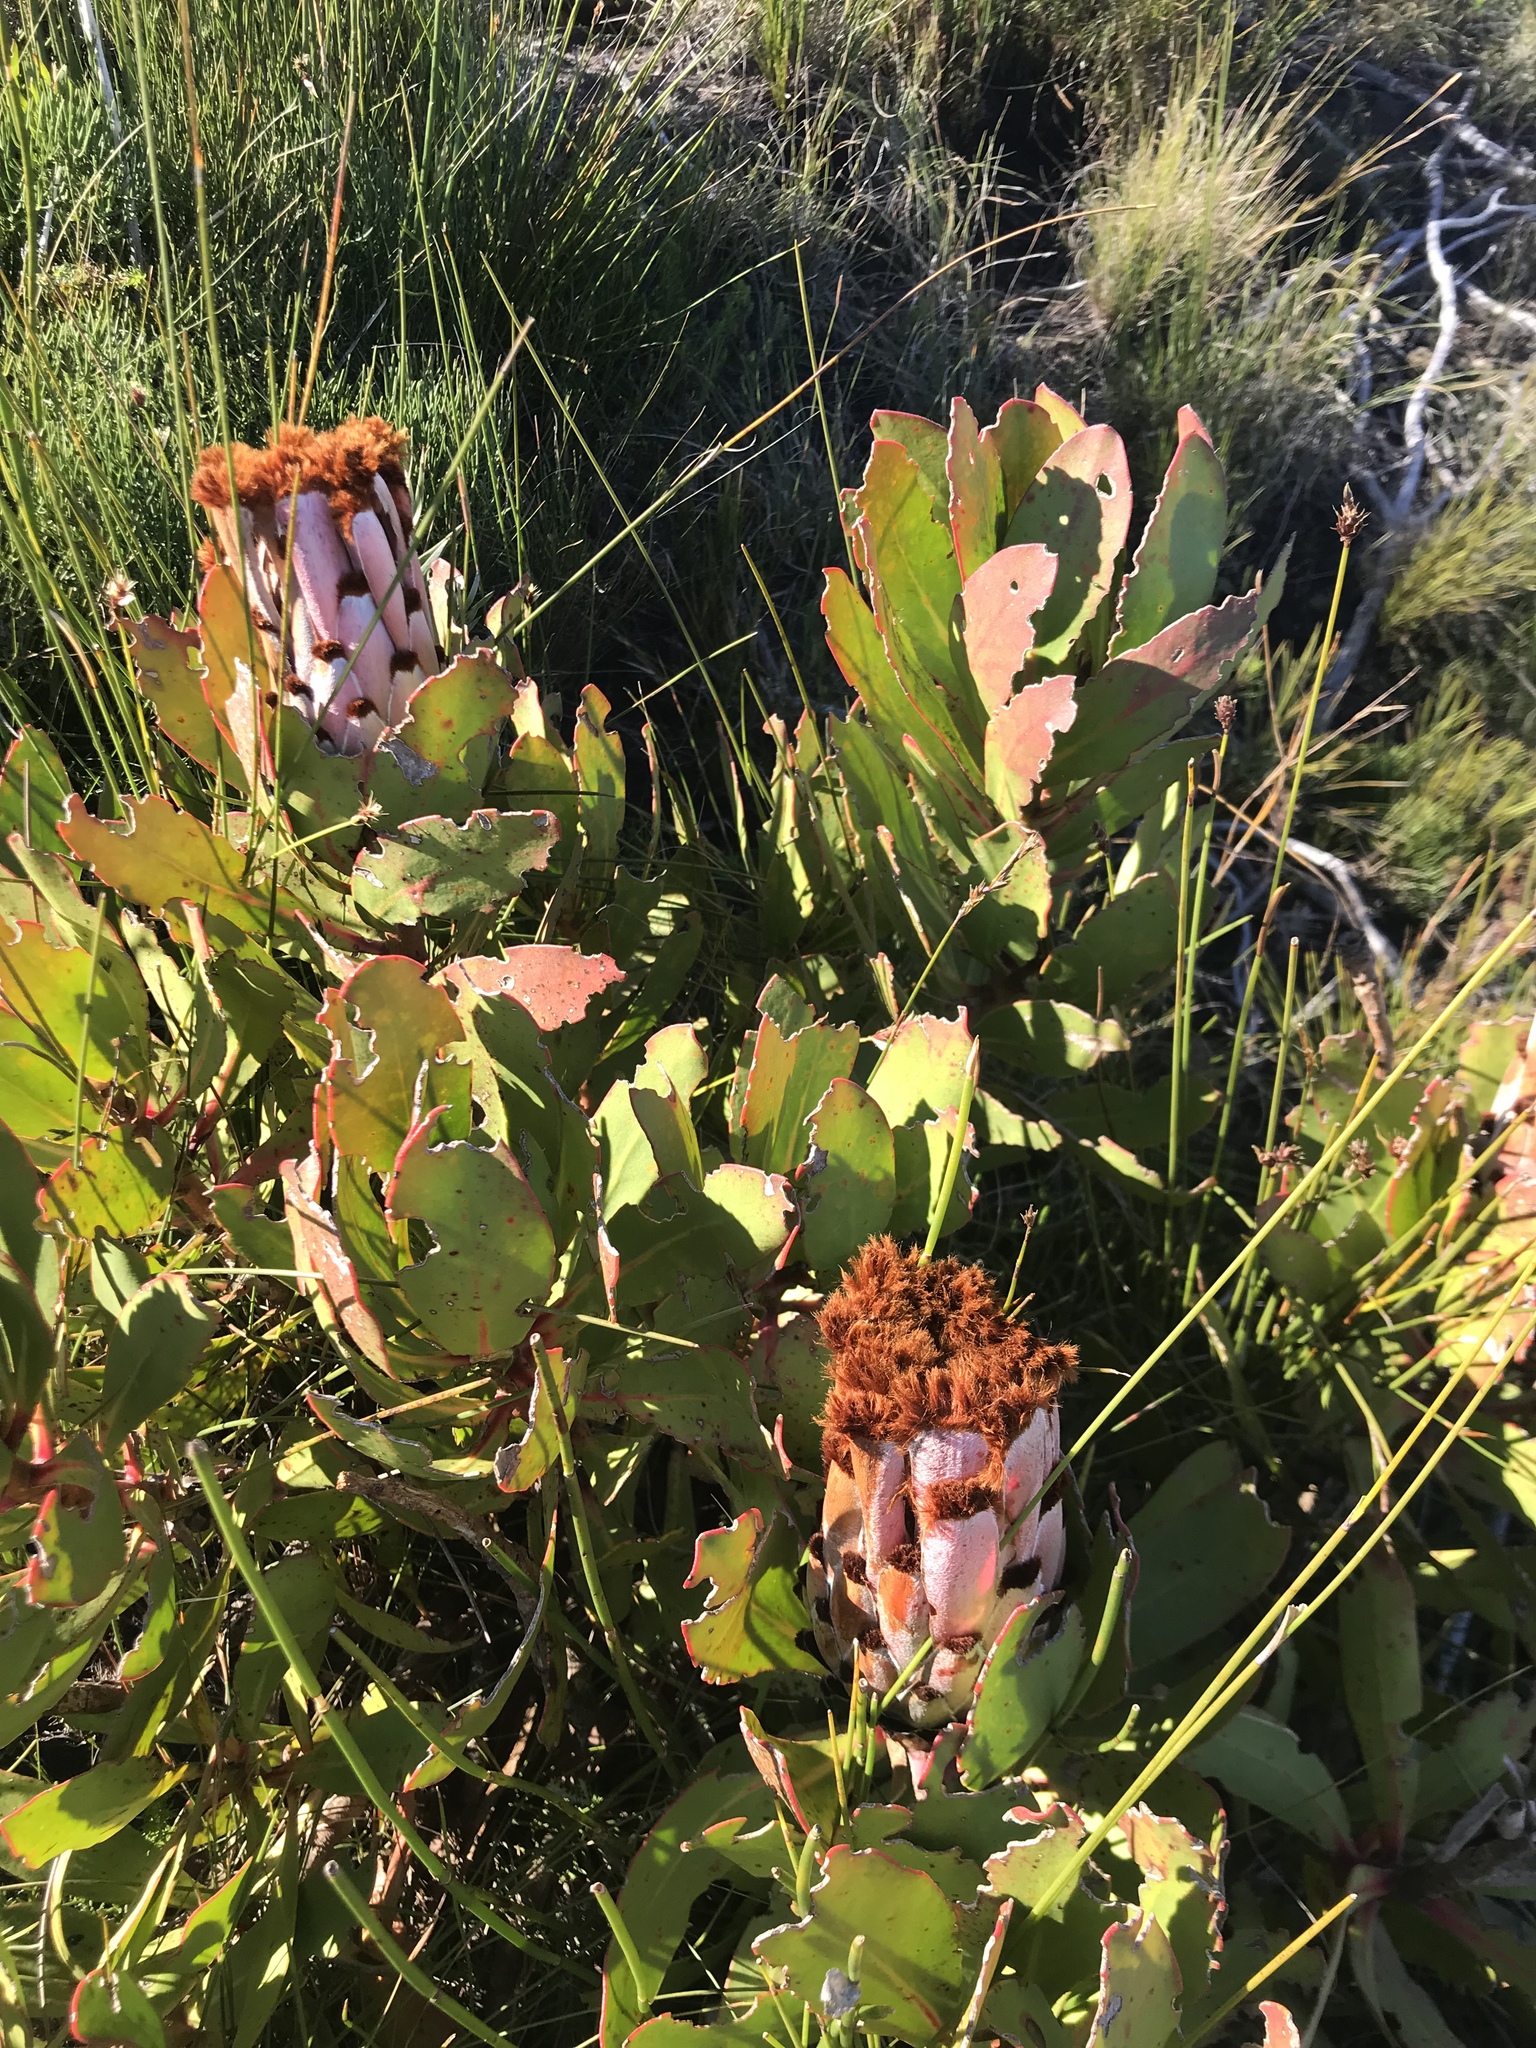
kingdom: Plantae
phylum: Tracheophyta
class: Magnoliopsida
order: Proteales
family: Proteaceae
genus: Protea
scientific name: Protea speciosa
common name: Brown-beard sugarbush
